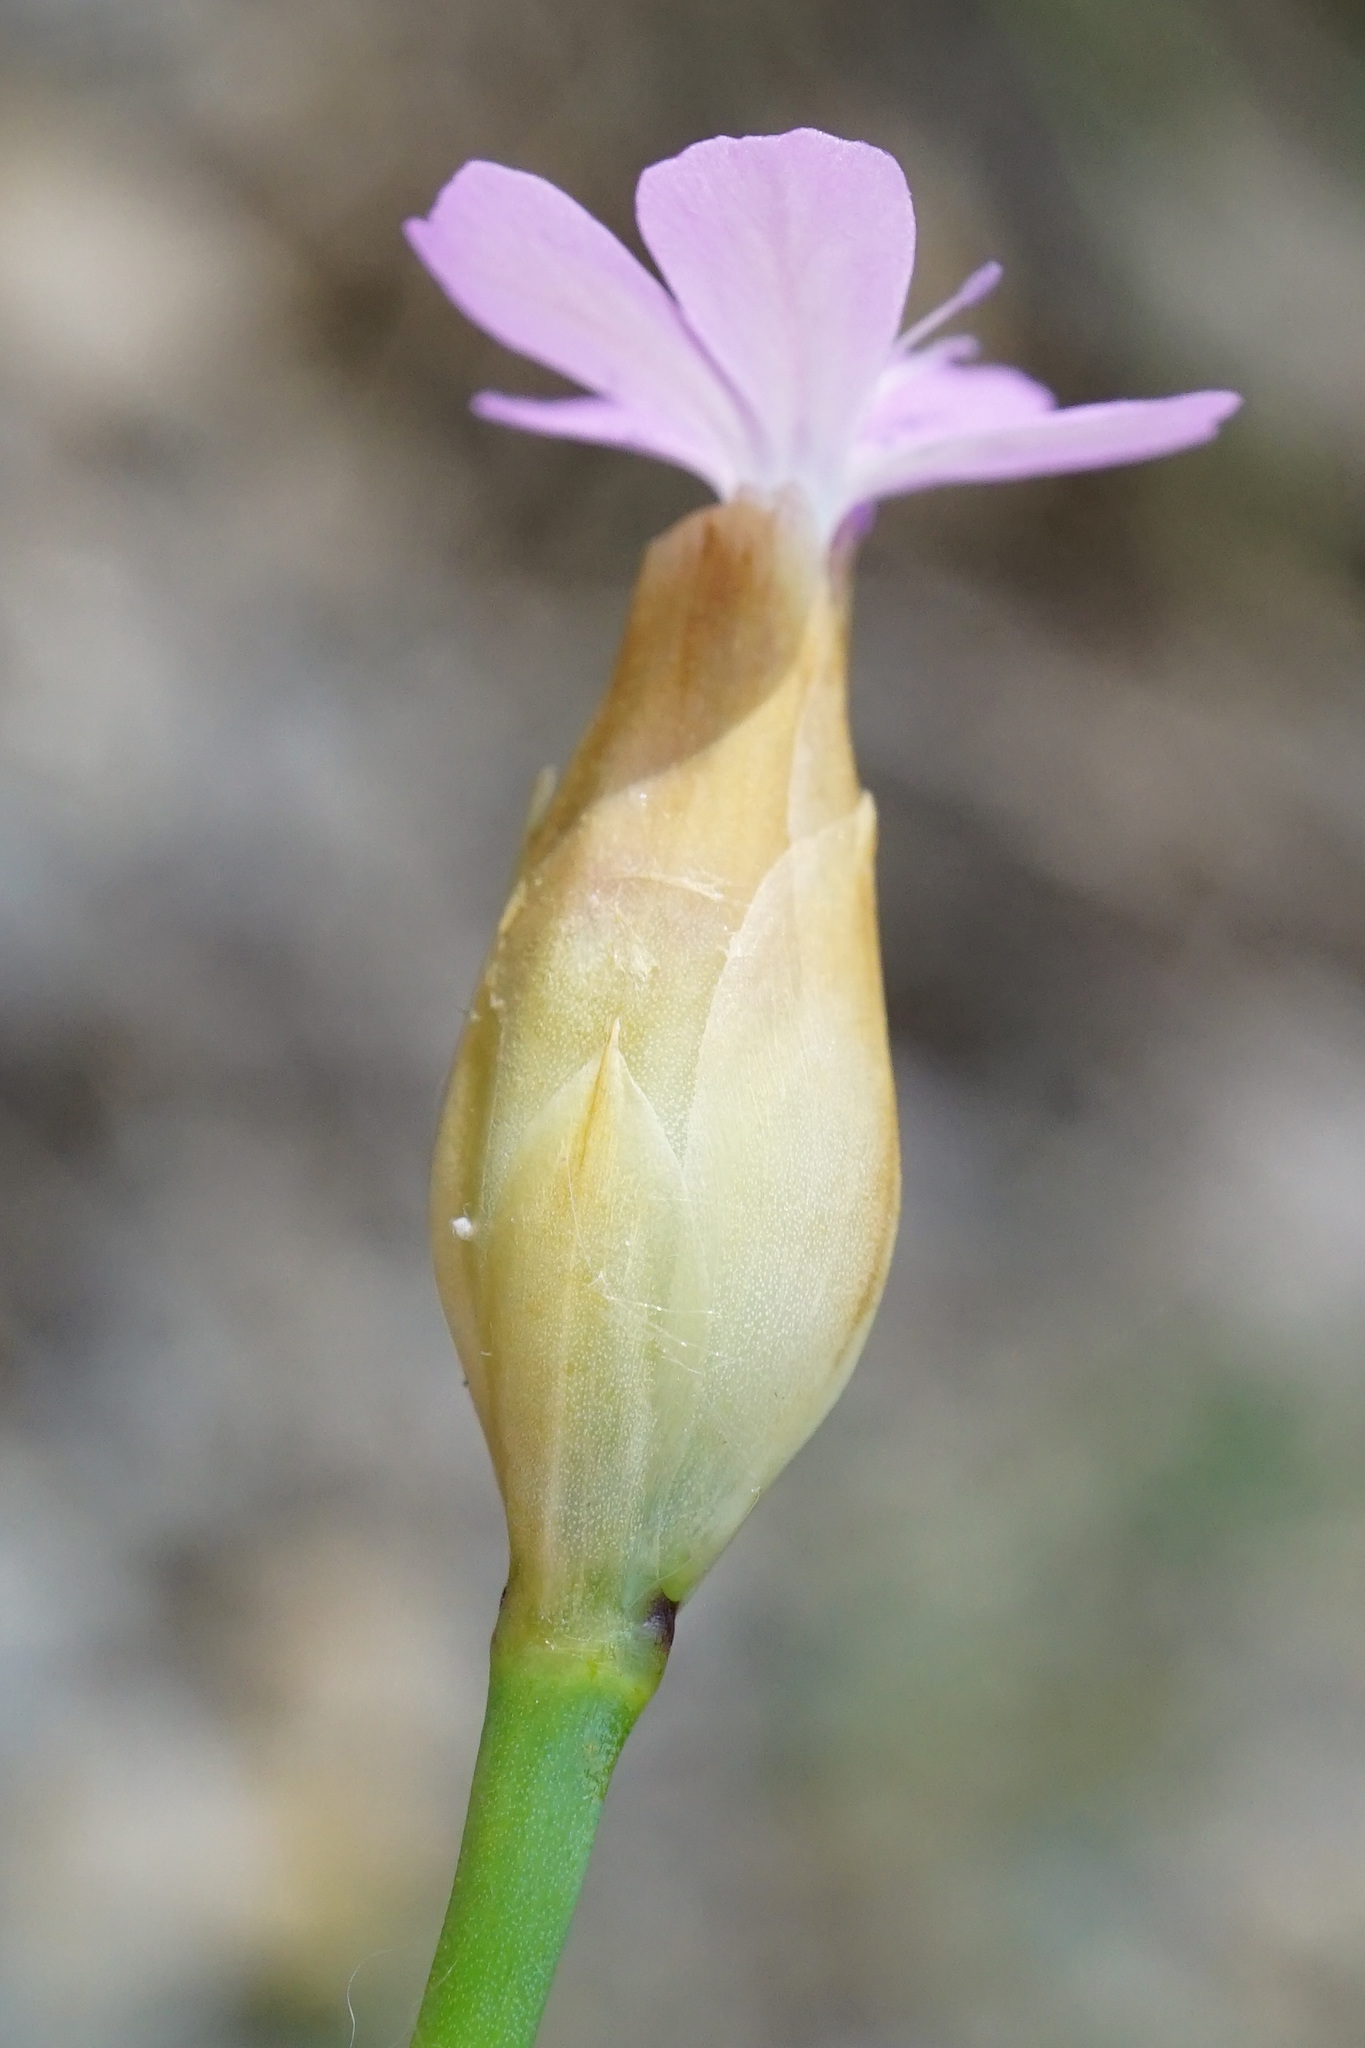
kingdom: Plantae
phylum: Tracheophyta
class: Magnoliopsida
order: Caryophyllales
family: Caryophyllaceae
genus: Petrorhagia
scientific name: Petrorhagia prolifera
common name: Proliferous pink
